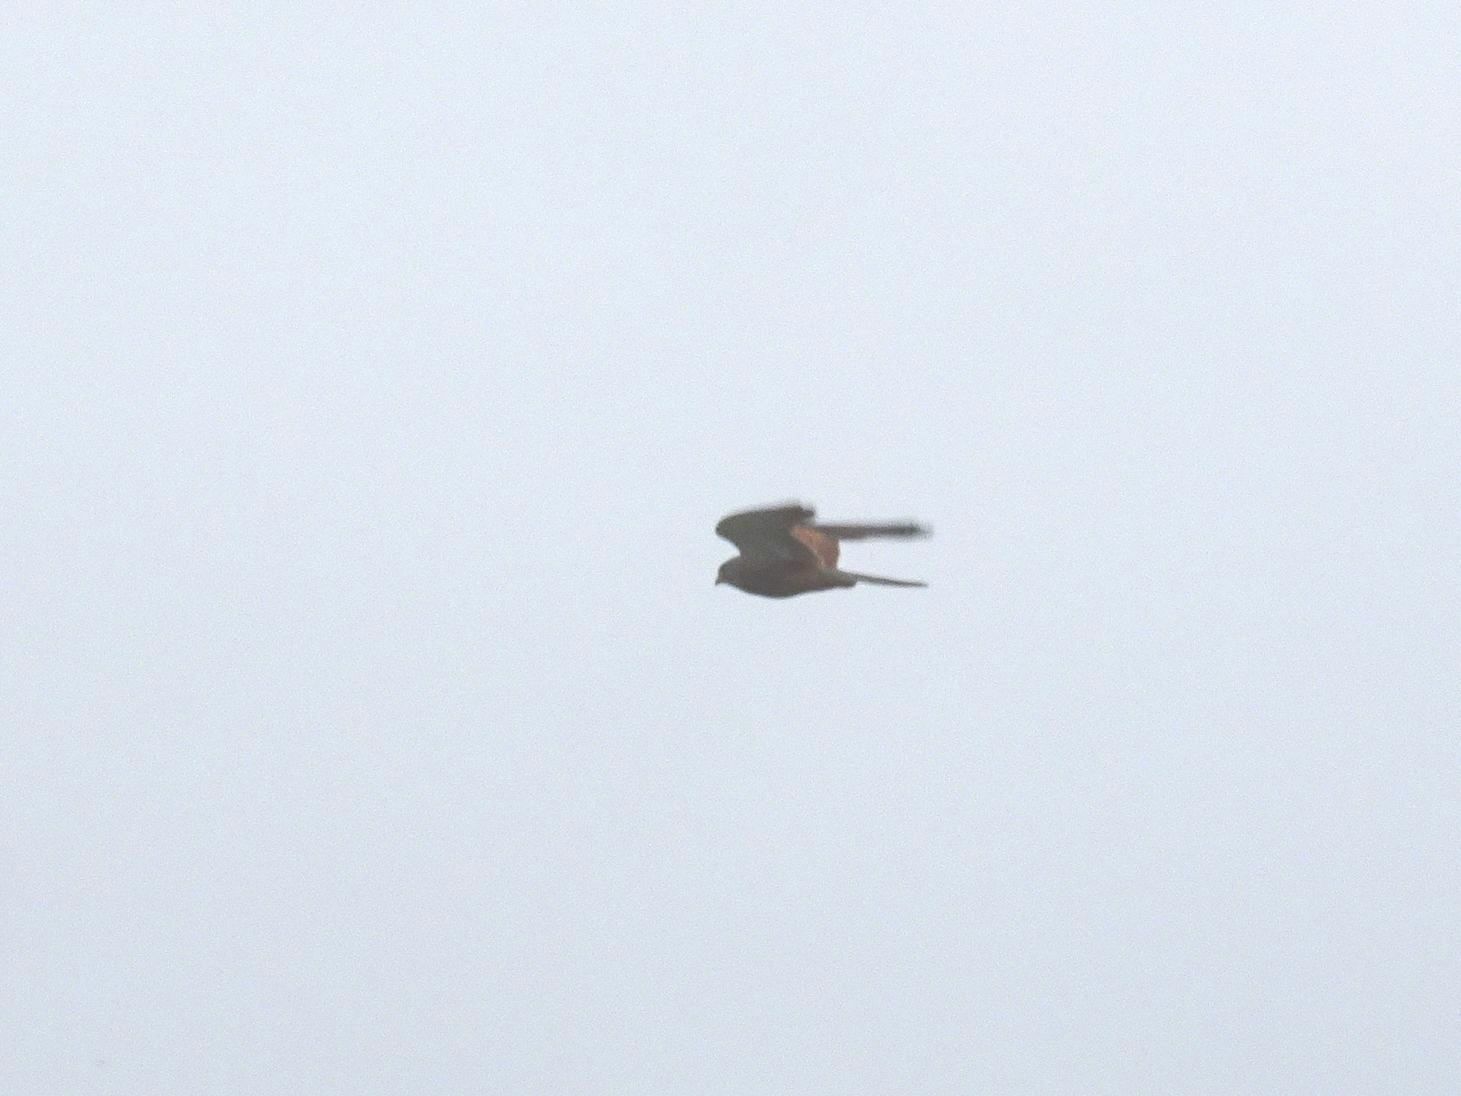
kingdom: Animalia
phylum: Chordata
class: Aves
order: Falconiformes
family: Falconidae
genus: Falco
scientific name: Falco rupicolus
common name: Rock kestrel
